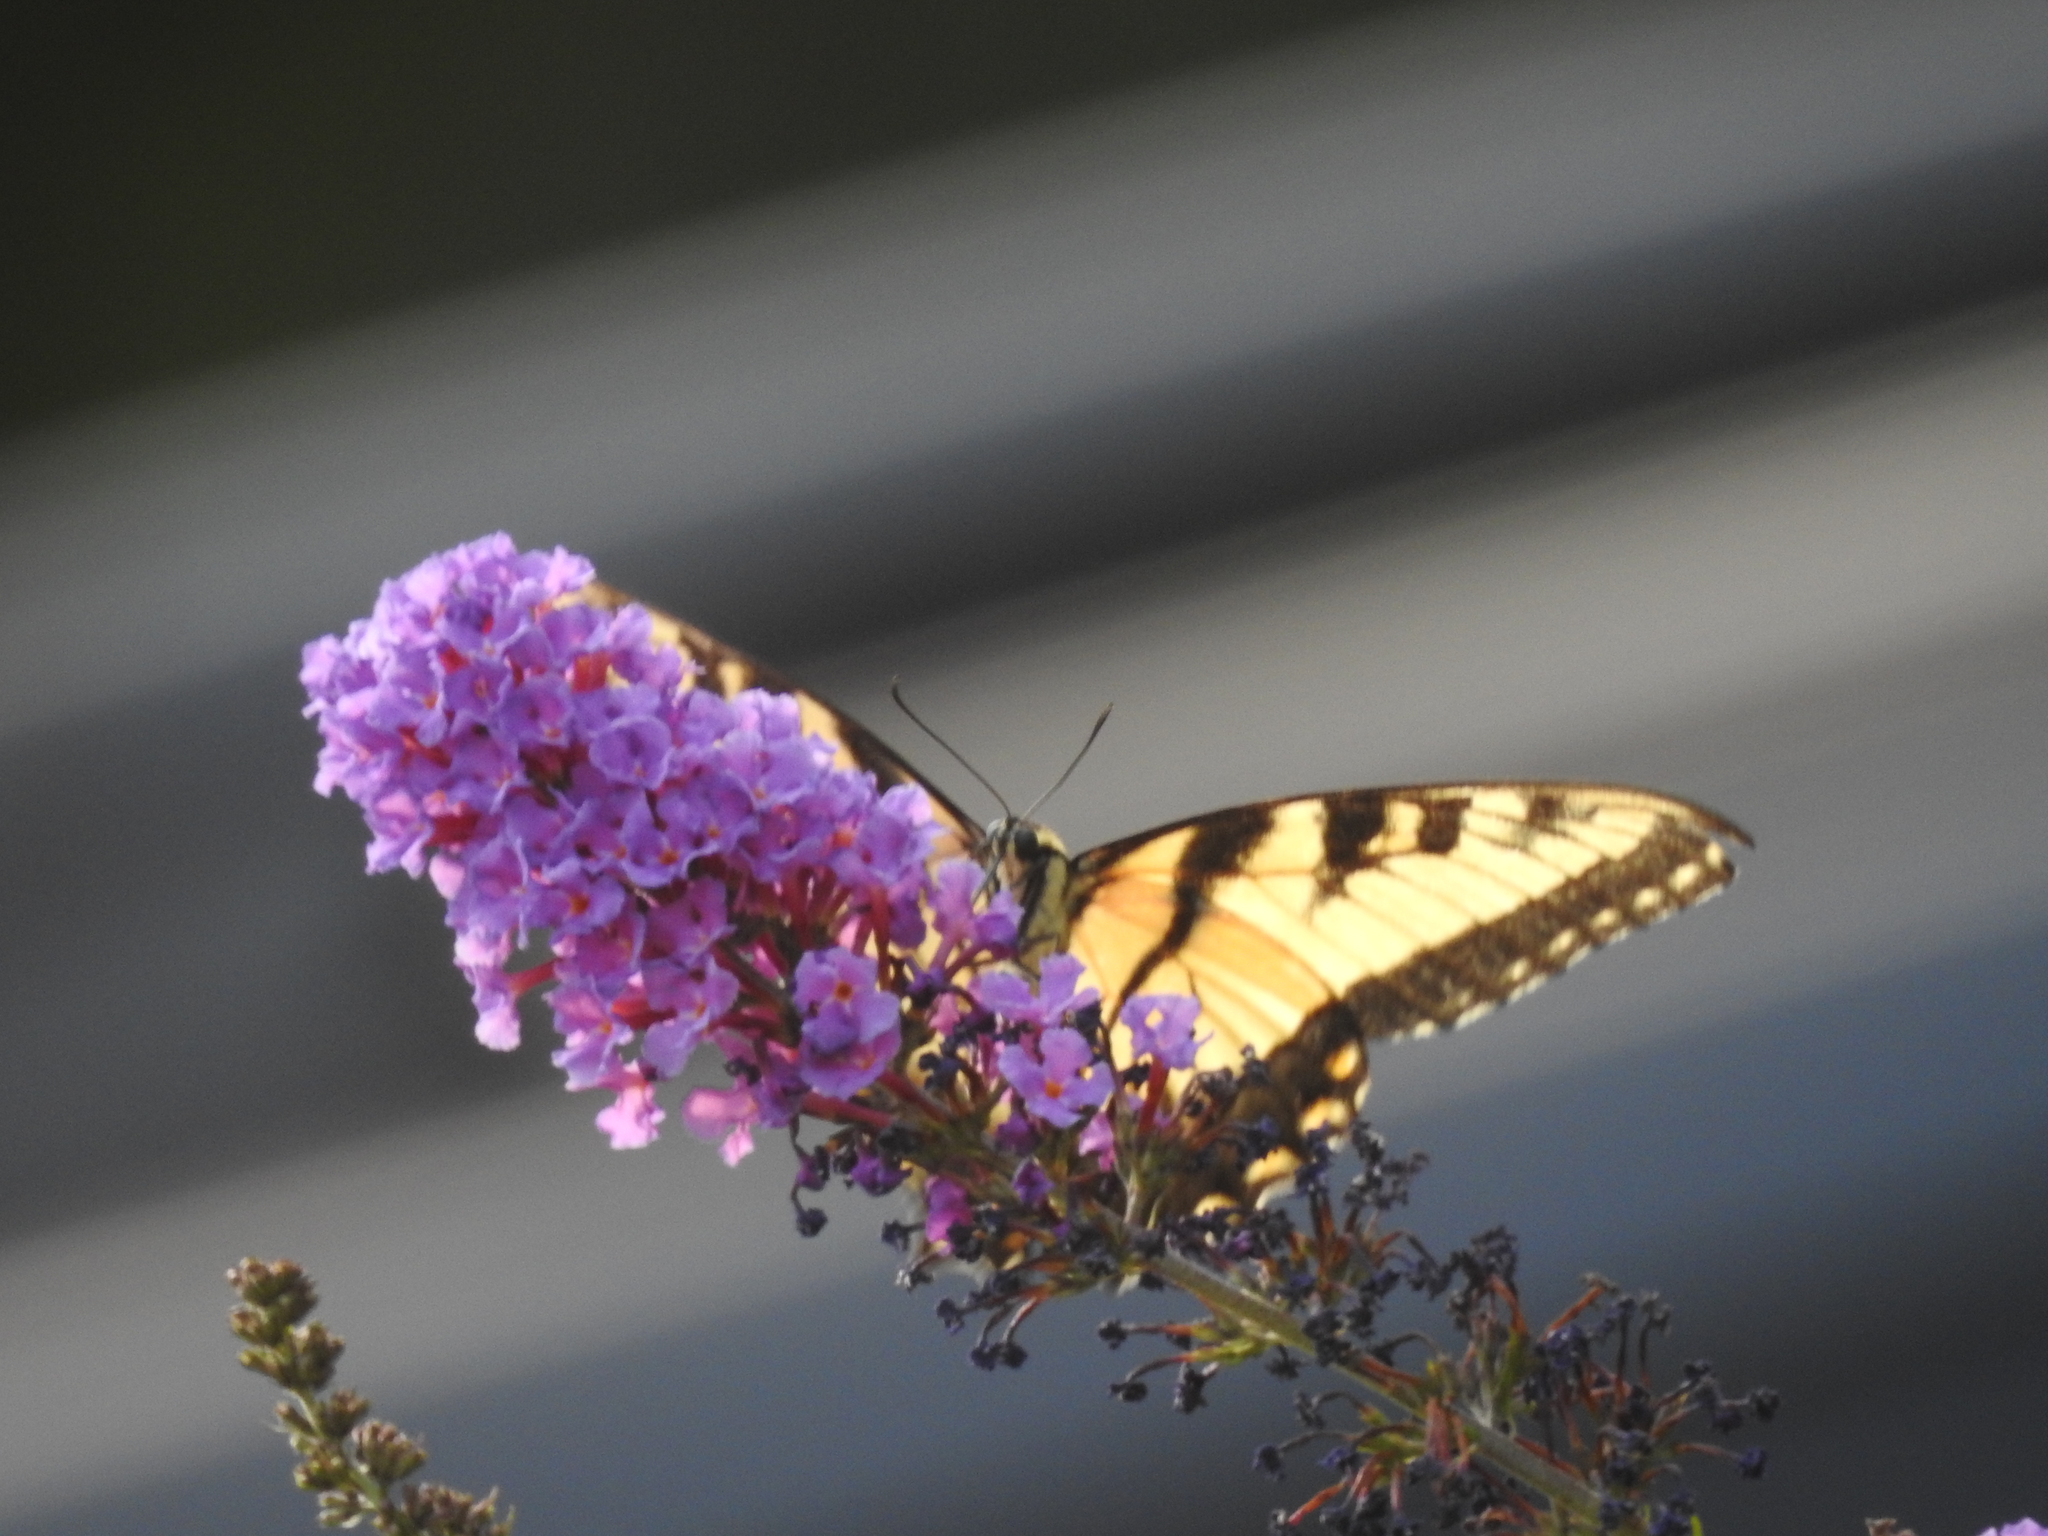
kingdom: Animalia
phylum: Arthropoda
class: Insecta
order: Lepidoptera
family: Papilionidae
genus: Papilio
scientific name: Papilio glaucus
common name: Tiger swallowtail
